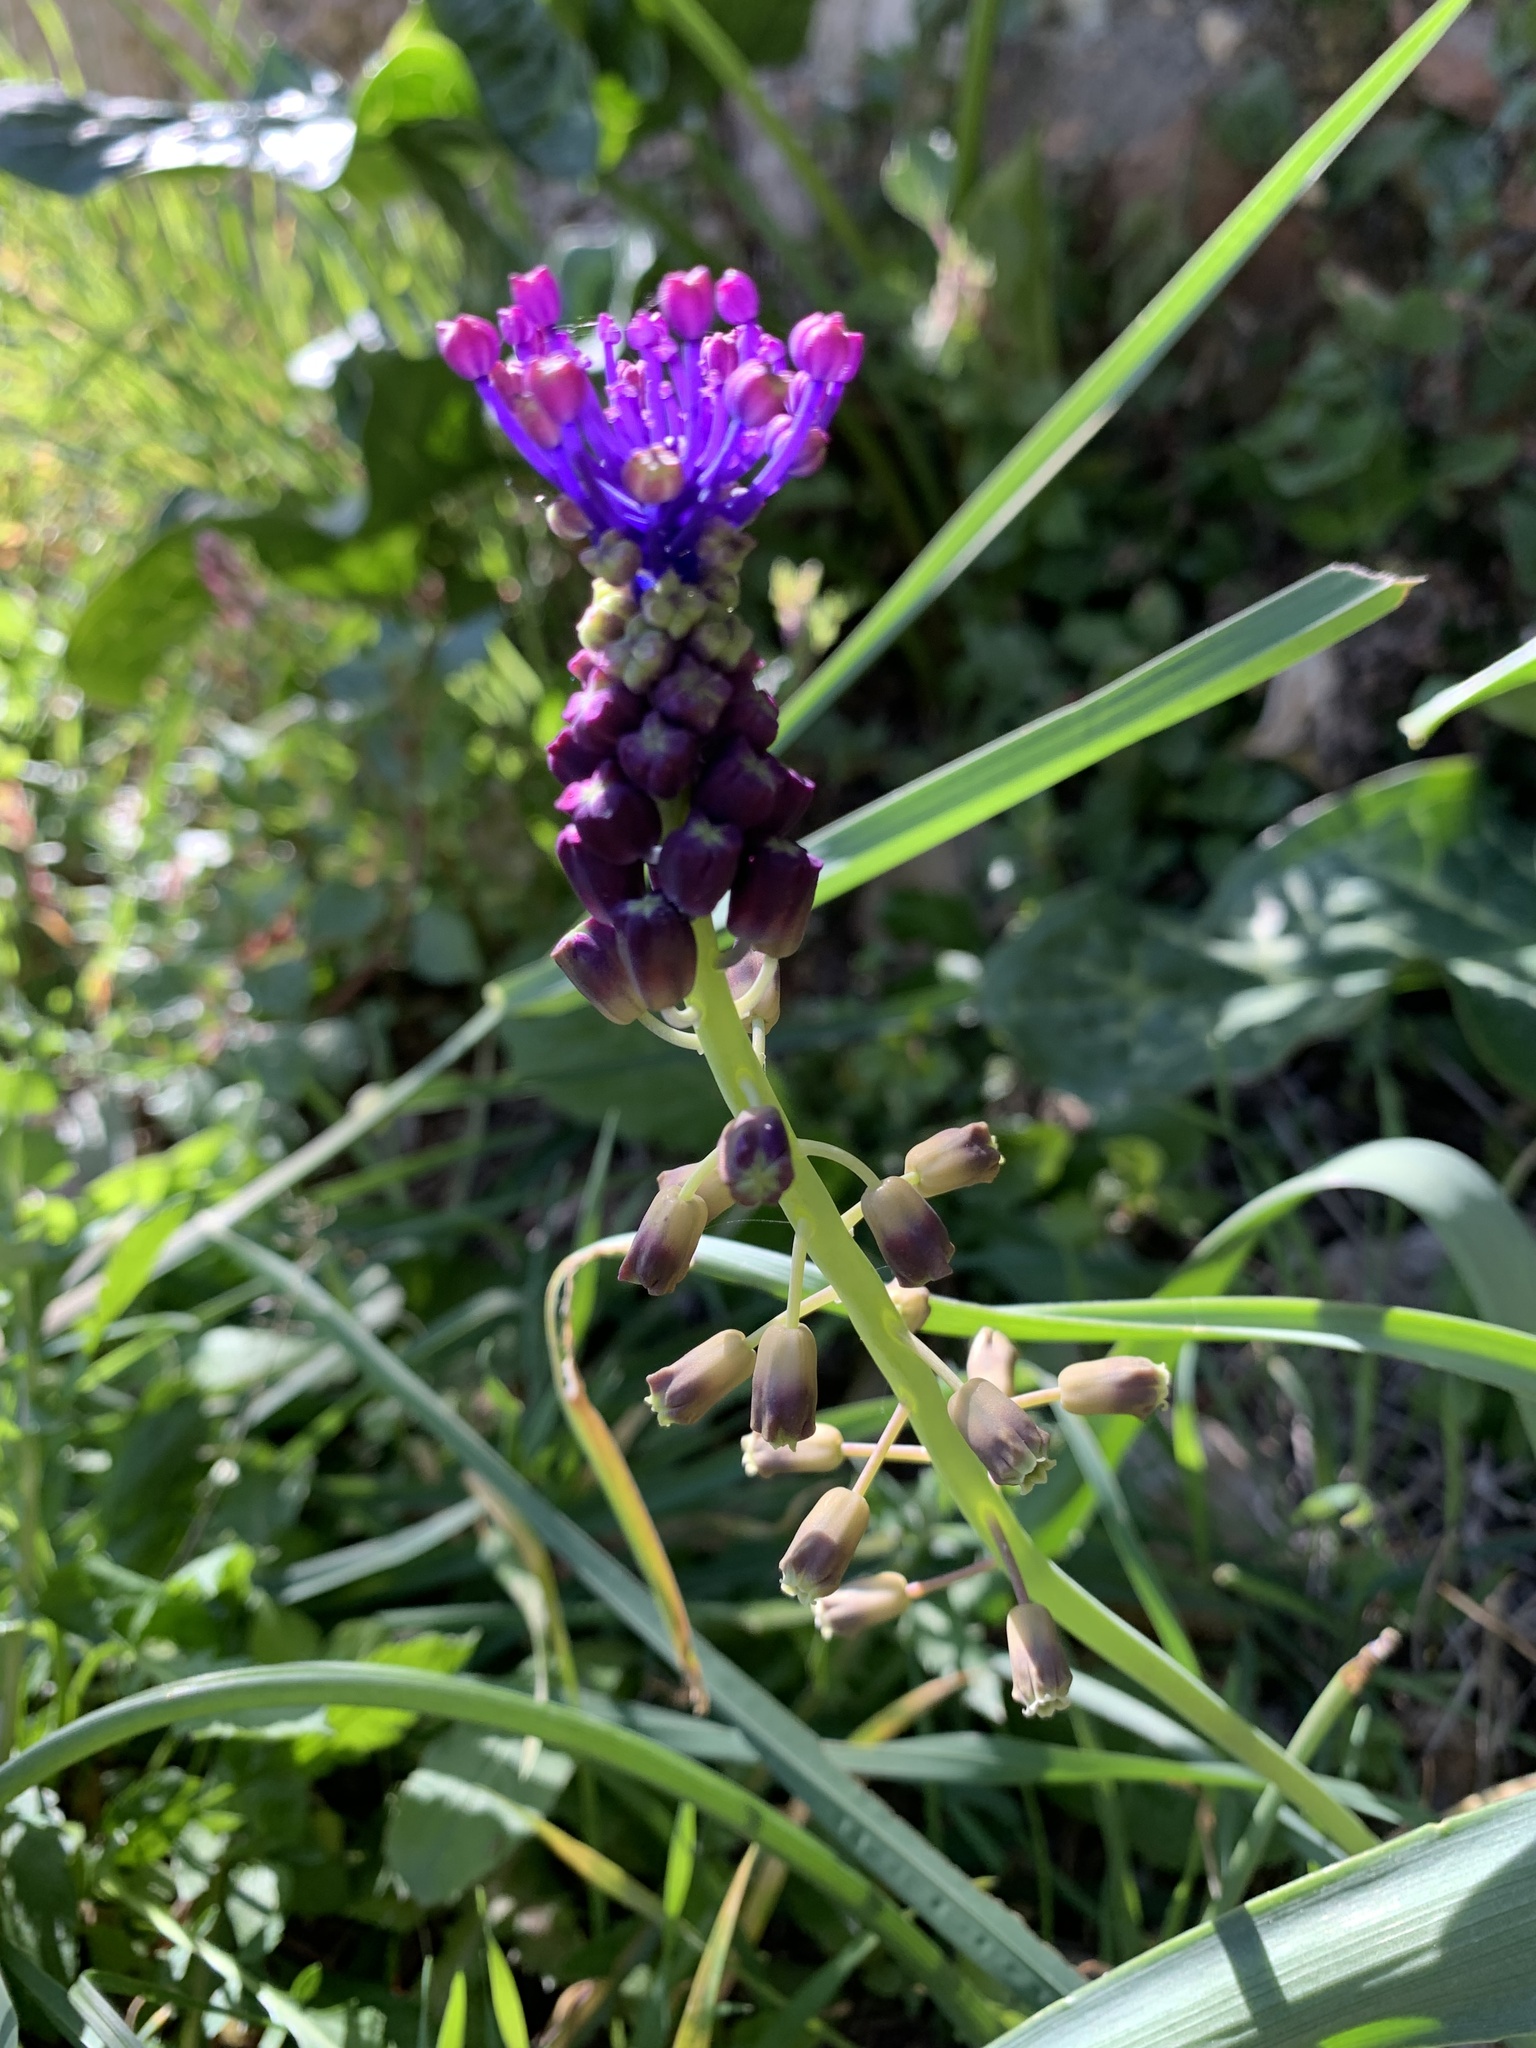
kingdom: Plantae
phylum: Tracheophyta
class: Liliopsida
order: Asparagales
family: Asparagaceae
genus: Muscari
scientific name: Muscari comosum
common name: Tassel hyacinth
